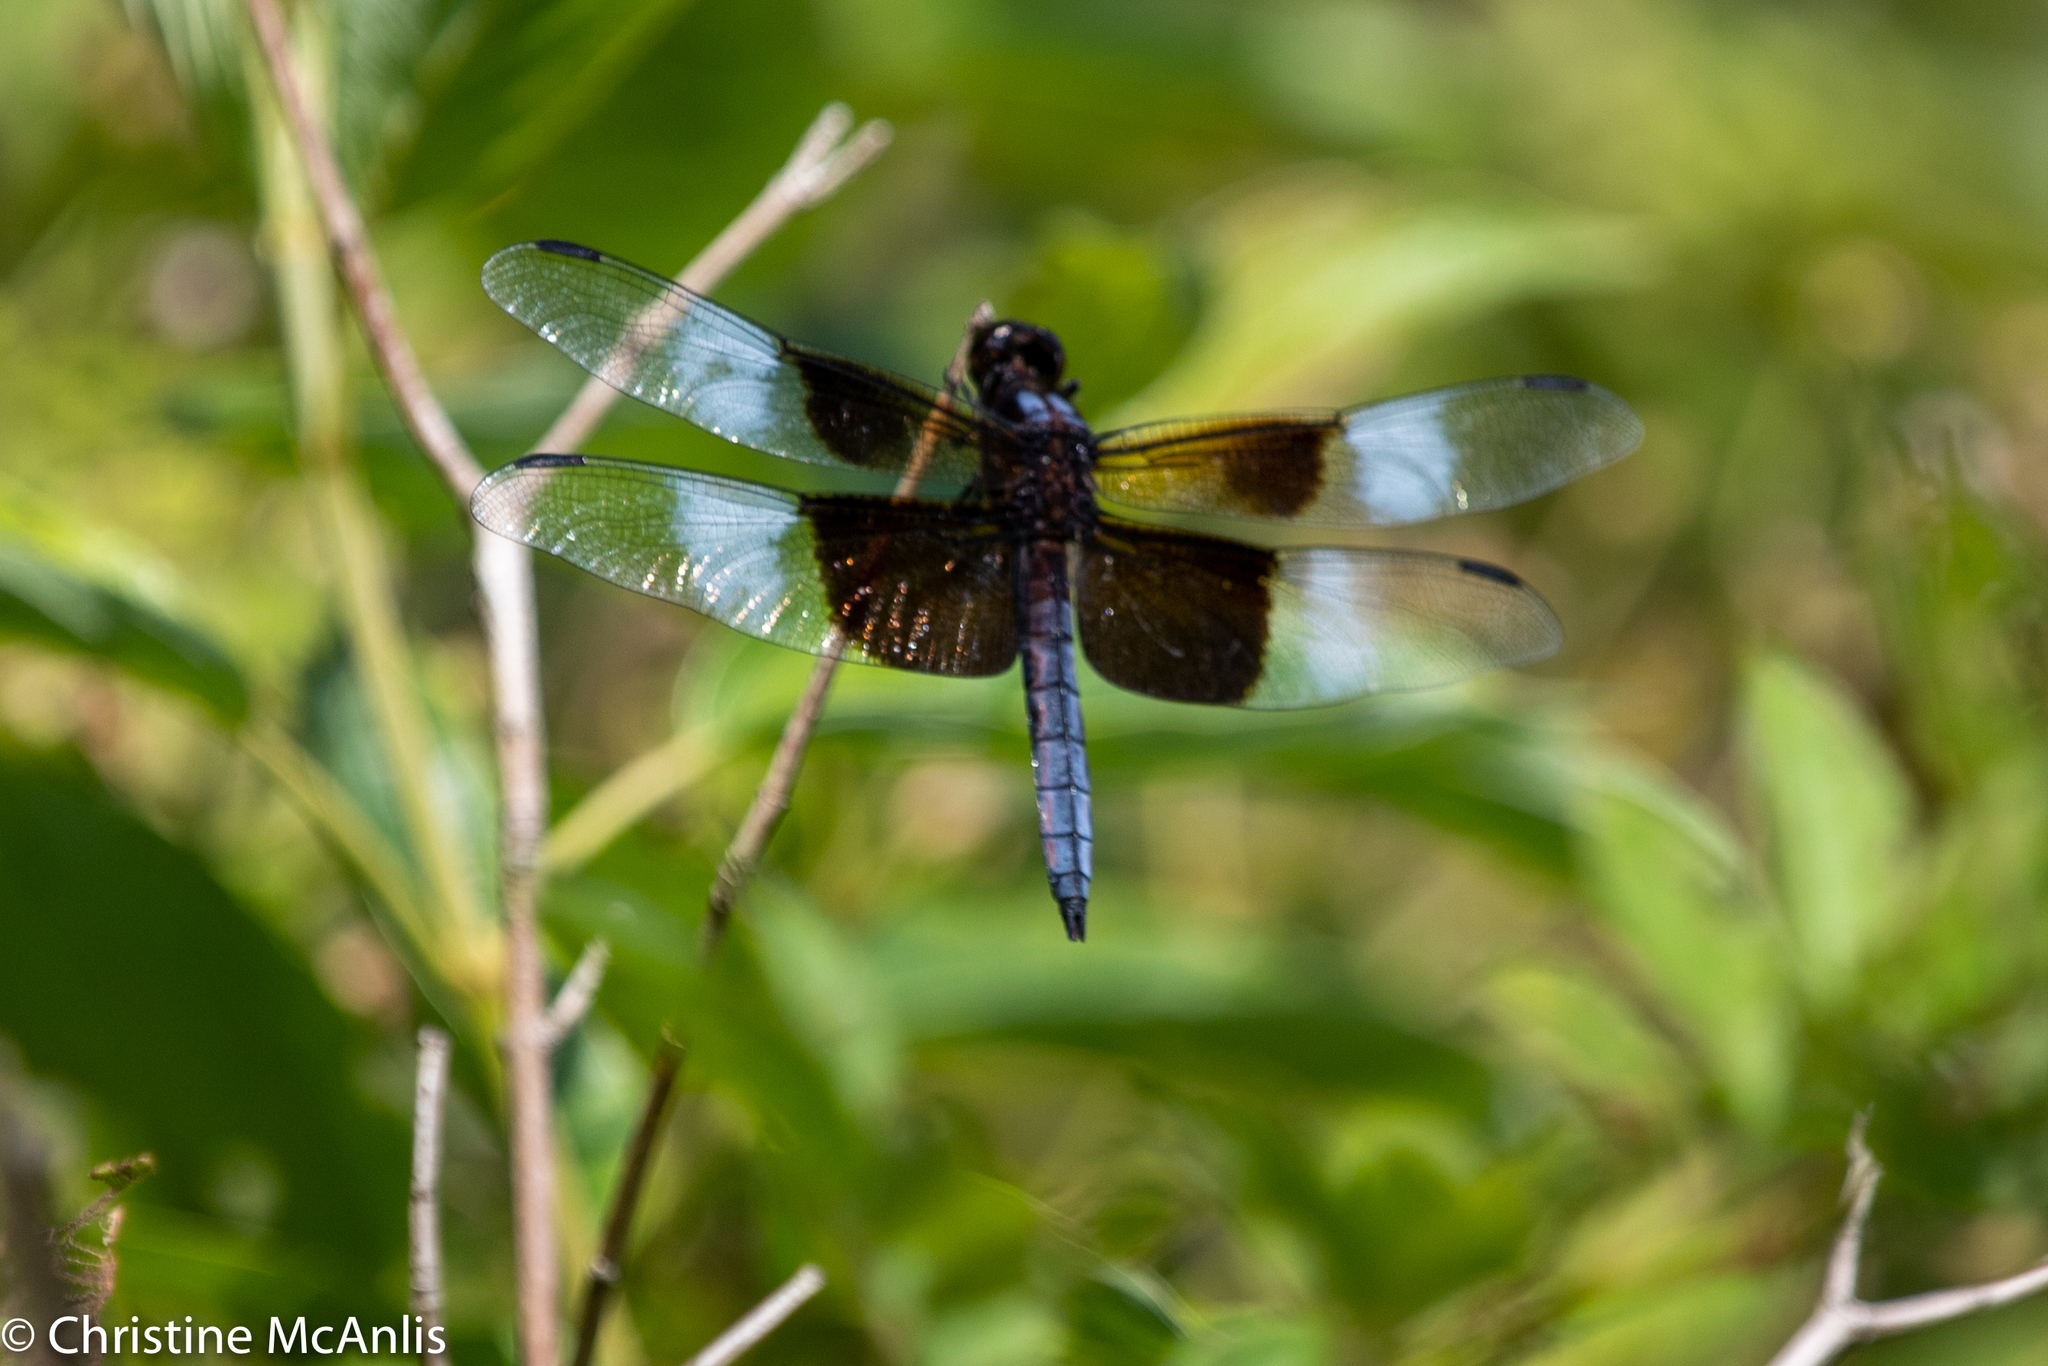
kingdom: Animalia
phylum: Arthropoda
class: Insecta
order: Odonata
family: Libellulidae
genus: Libellula
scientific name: Libellula luctuosa
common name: Widow skimmer
